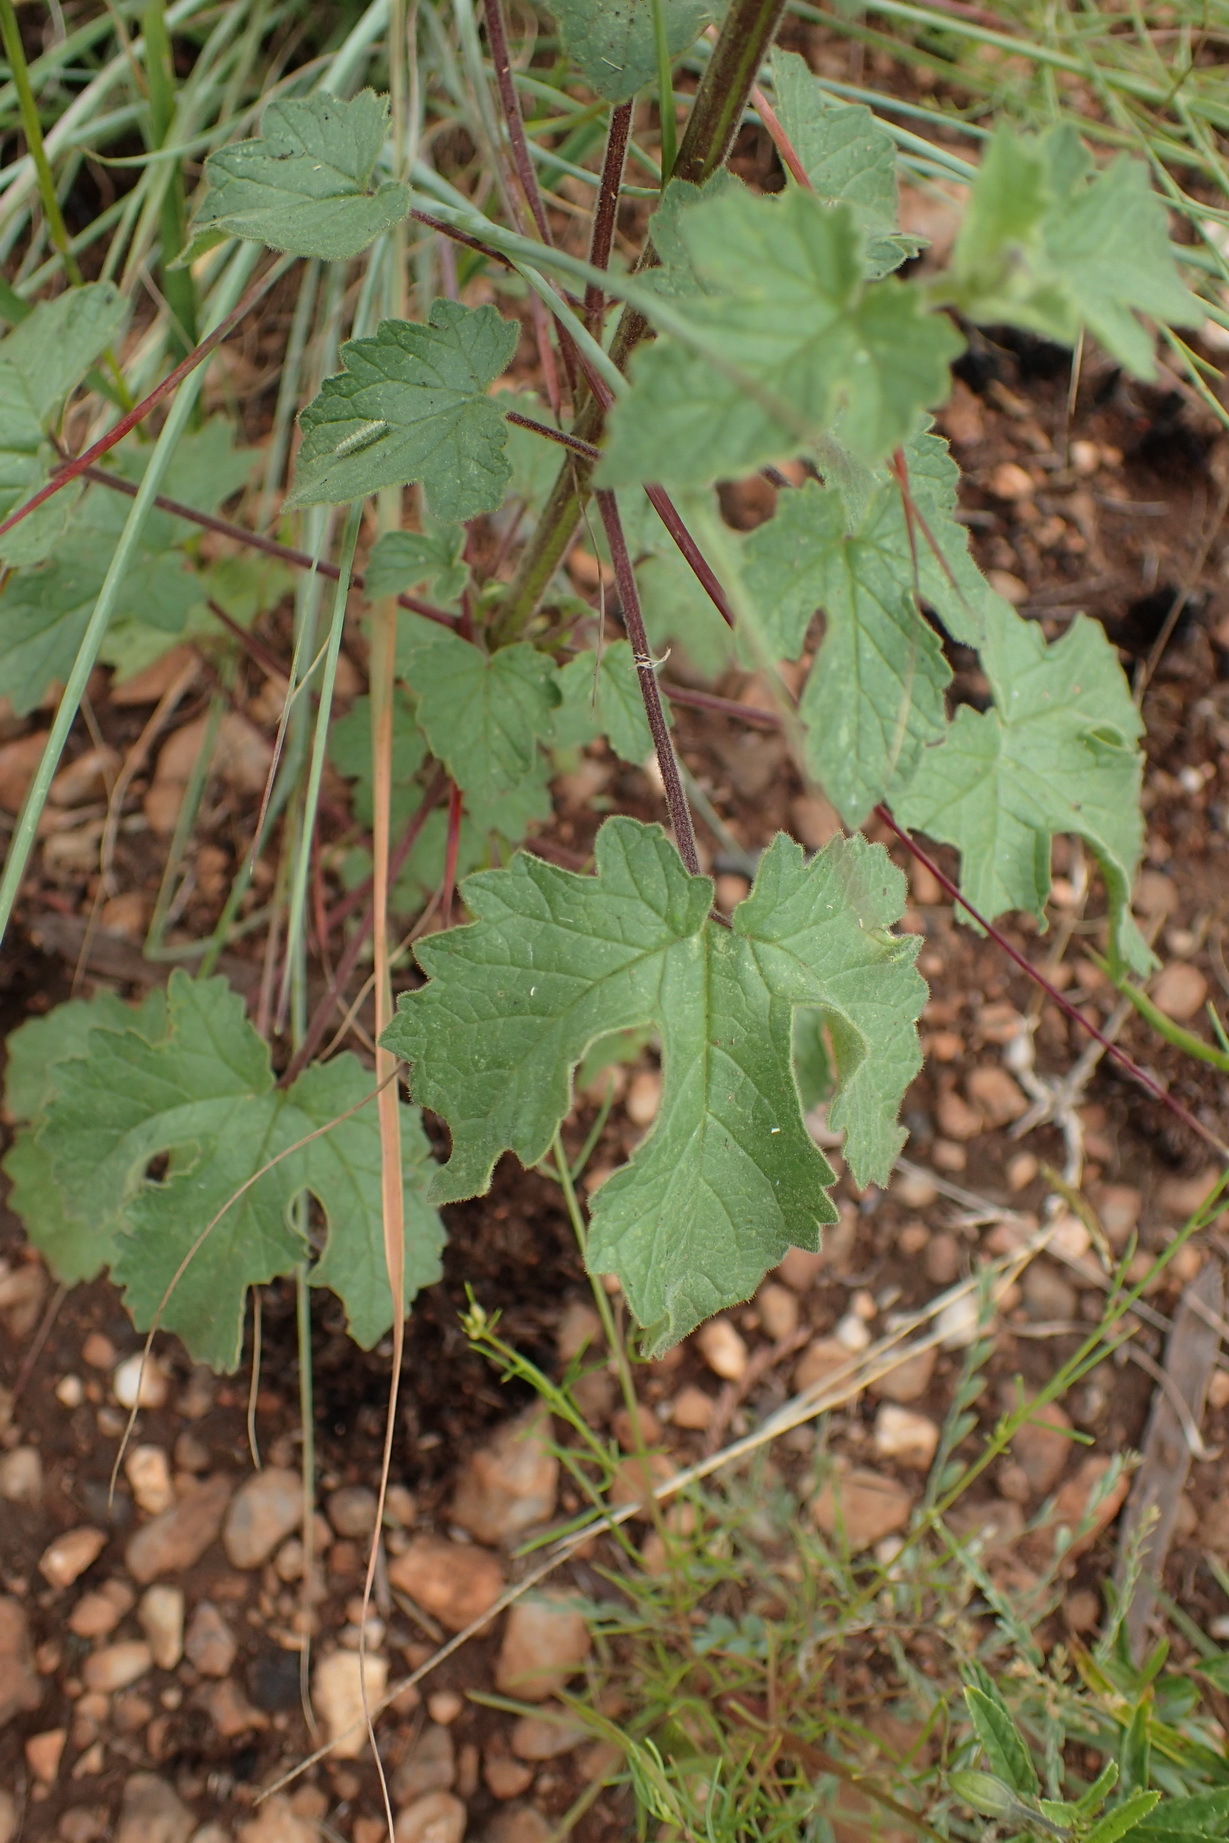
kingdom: Plantae
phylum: Tracheophyta
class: Magnoliopsida
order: Lamiales
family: Pedaliaceae
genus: Sesamum
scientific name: Sesamum trilobum
